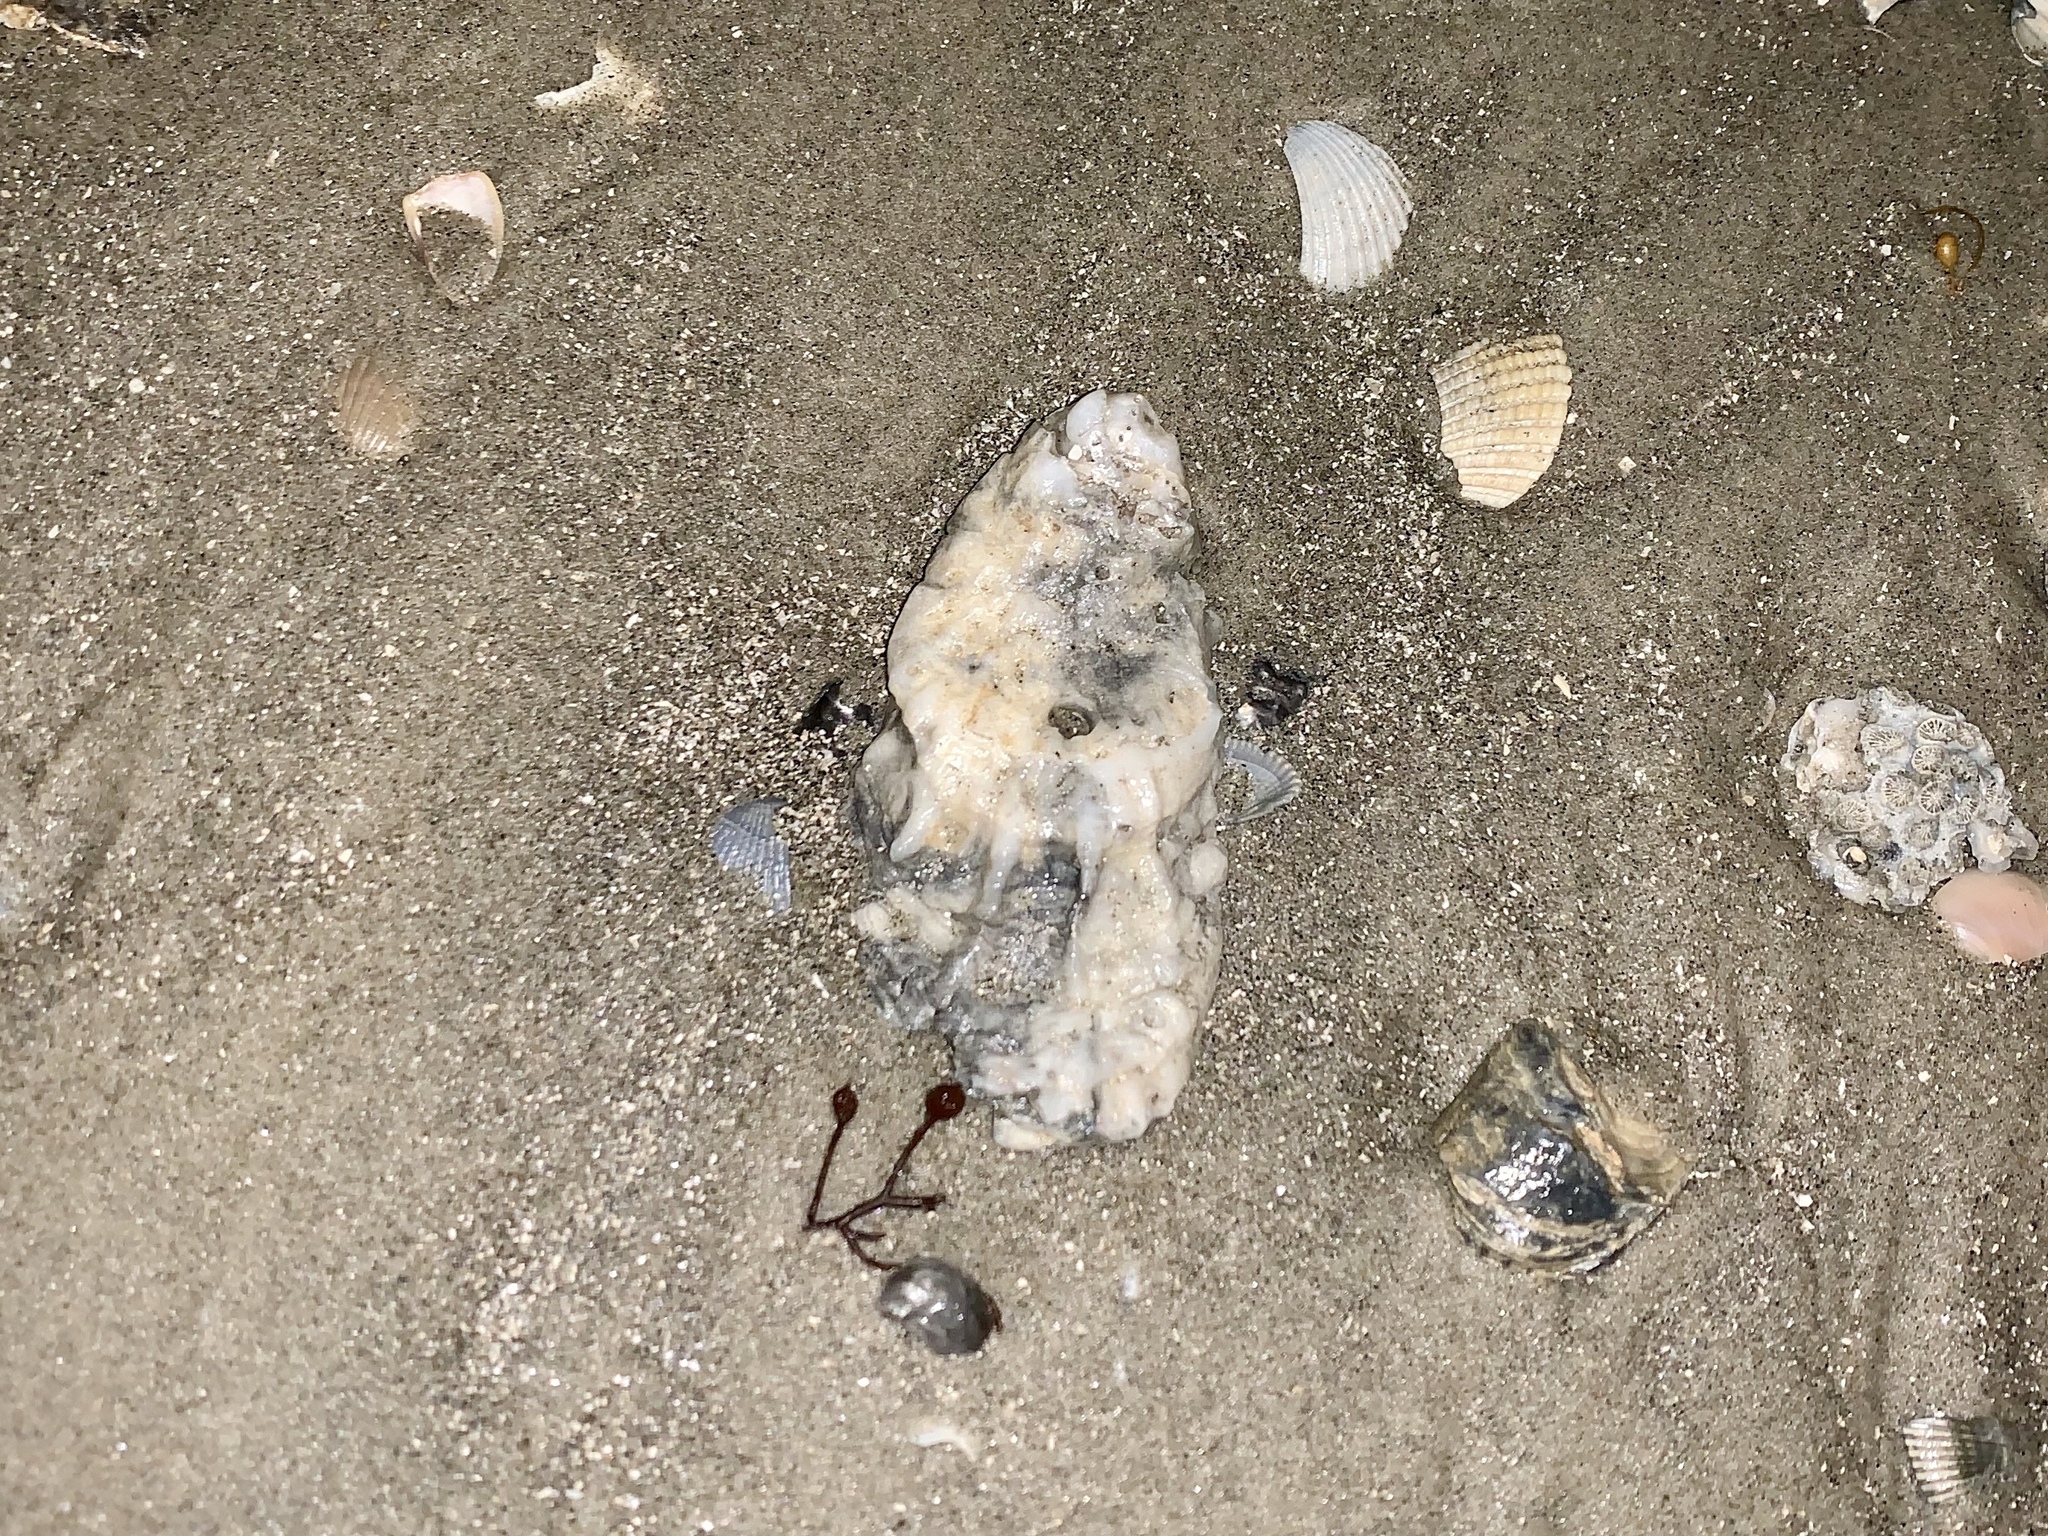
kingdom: Animalia
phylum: Mollusca
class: Bivalvia
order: Ostreida
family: Ostreidae
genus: Crassostrea
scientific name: Crassostrea virginica
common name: American oyster
